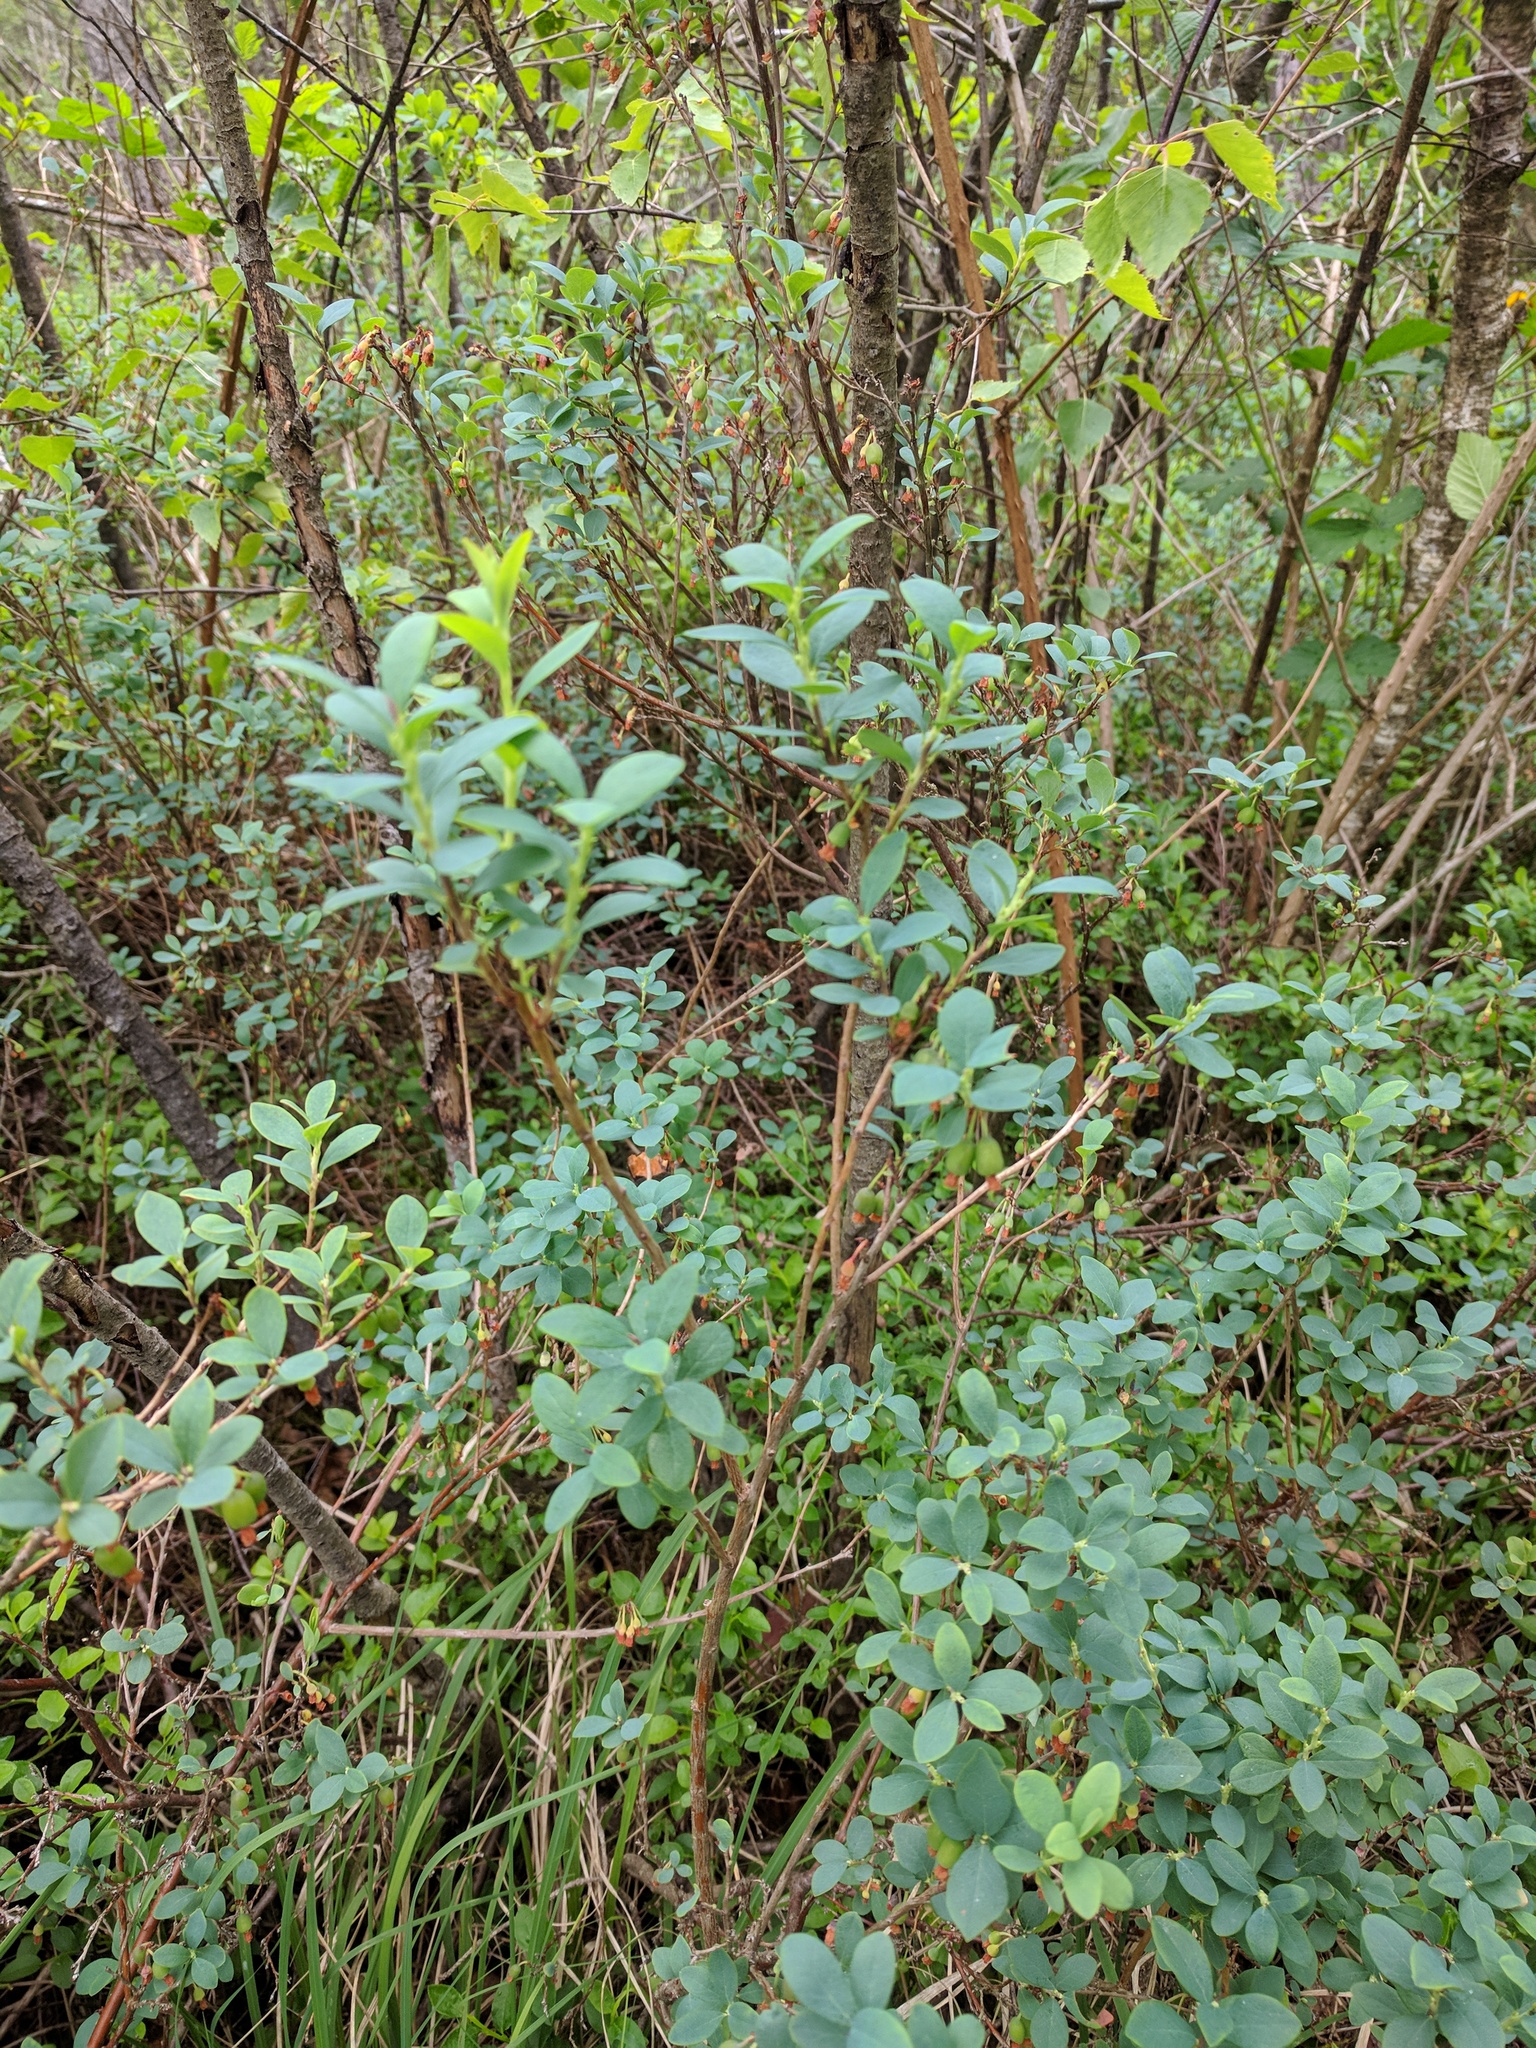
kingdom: Plantae
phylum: Tracheophyta
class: Magnoliopsida
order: Ericales
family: Ericaceae
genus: Vaccinium
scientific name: Vaccinium uliginosum
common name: Bog bilberry
